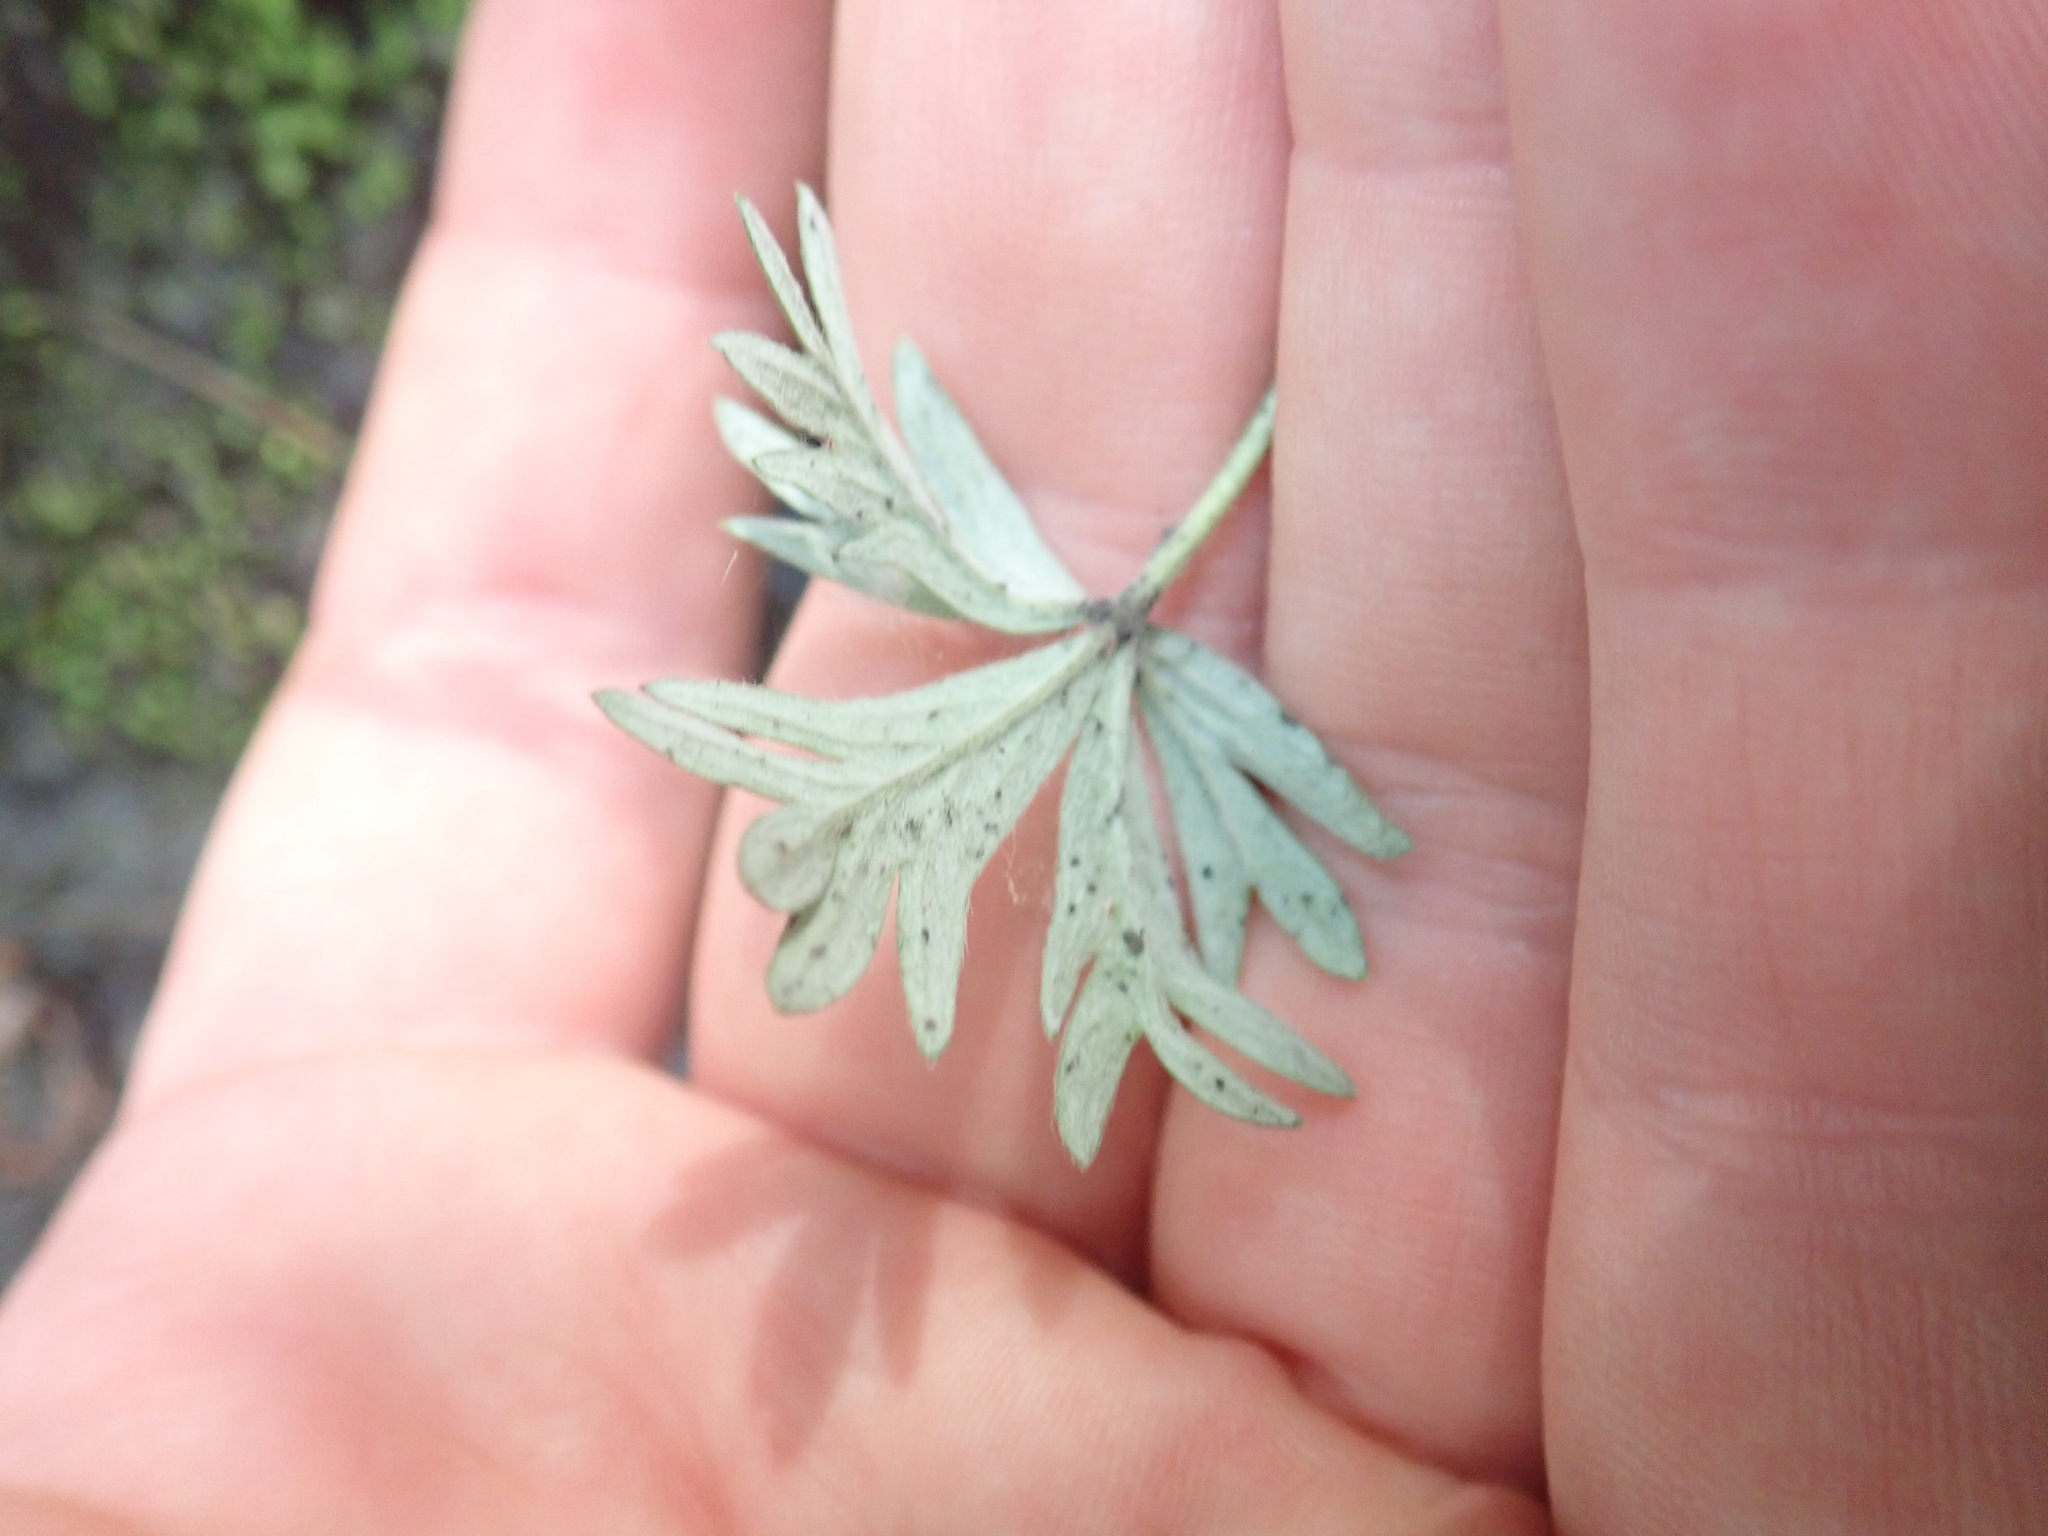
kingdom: Plantae
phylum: Tracheophyta
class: Magnoliopsida
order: Rosales
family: Rosaceae
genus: Potentilla
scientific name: Potentilla argentea
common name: Hoary cinquefoil
